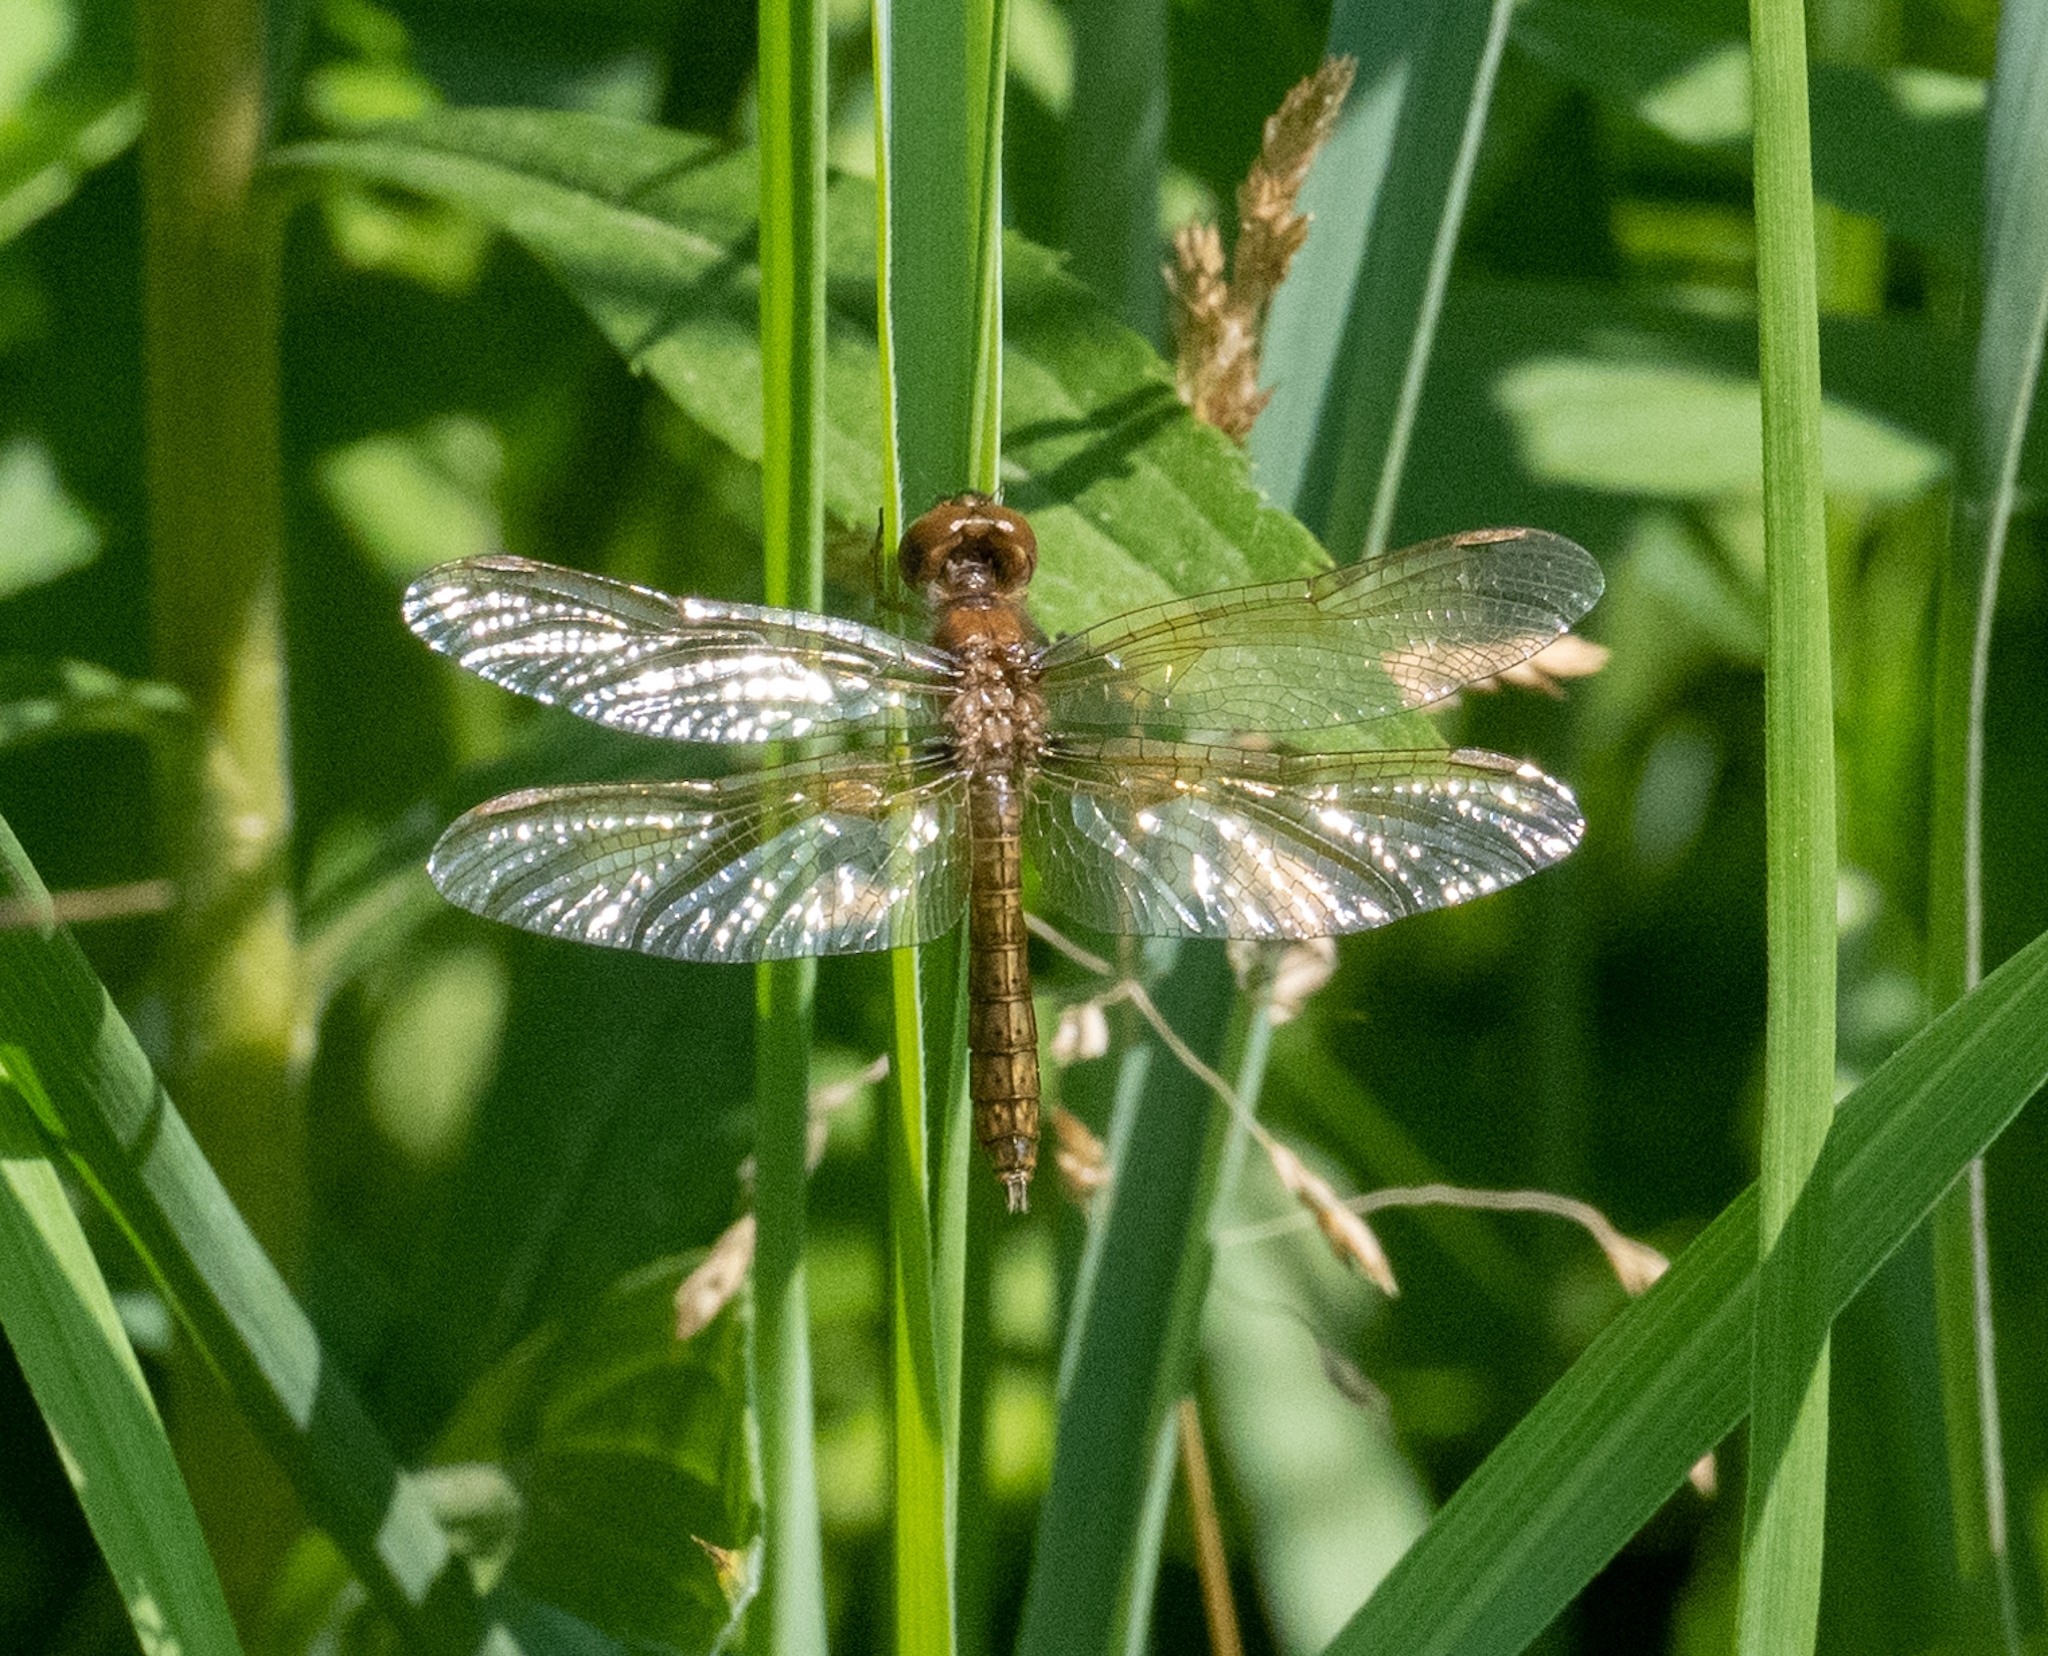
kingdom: Animalia
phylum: Arthropoda
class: Insecta
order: Odonata
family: Libellulidae
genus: Perithemis
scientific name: Perithemis tenera
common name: Eastern amberwing
